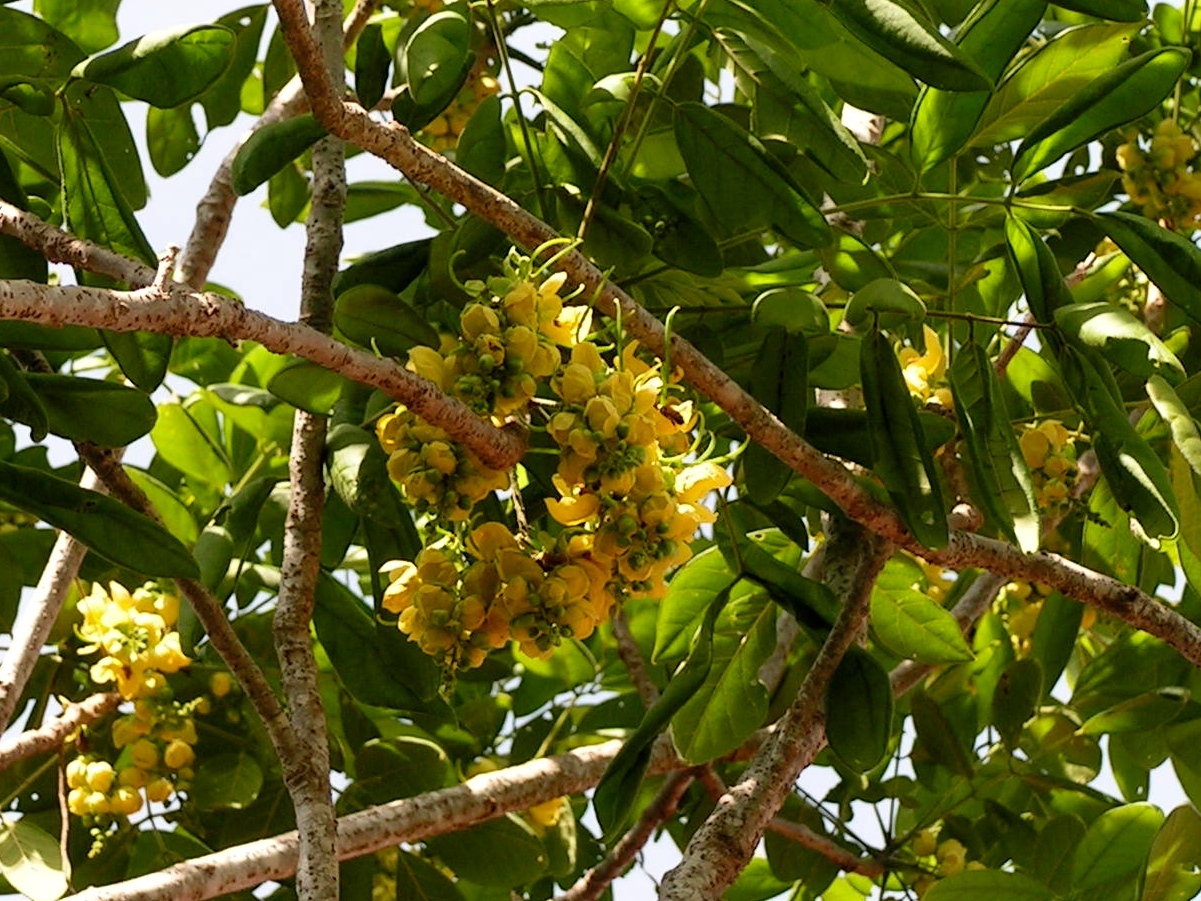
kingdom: Plantae
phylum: Tracheophyta
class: Magnoliopsida
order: Fabales
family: Fabaceae
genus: Senna
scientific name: Senna atomaria
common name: Flor de san jose
